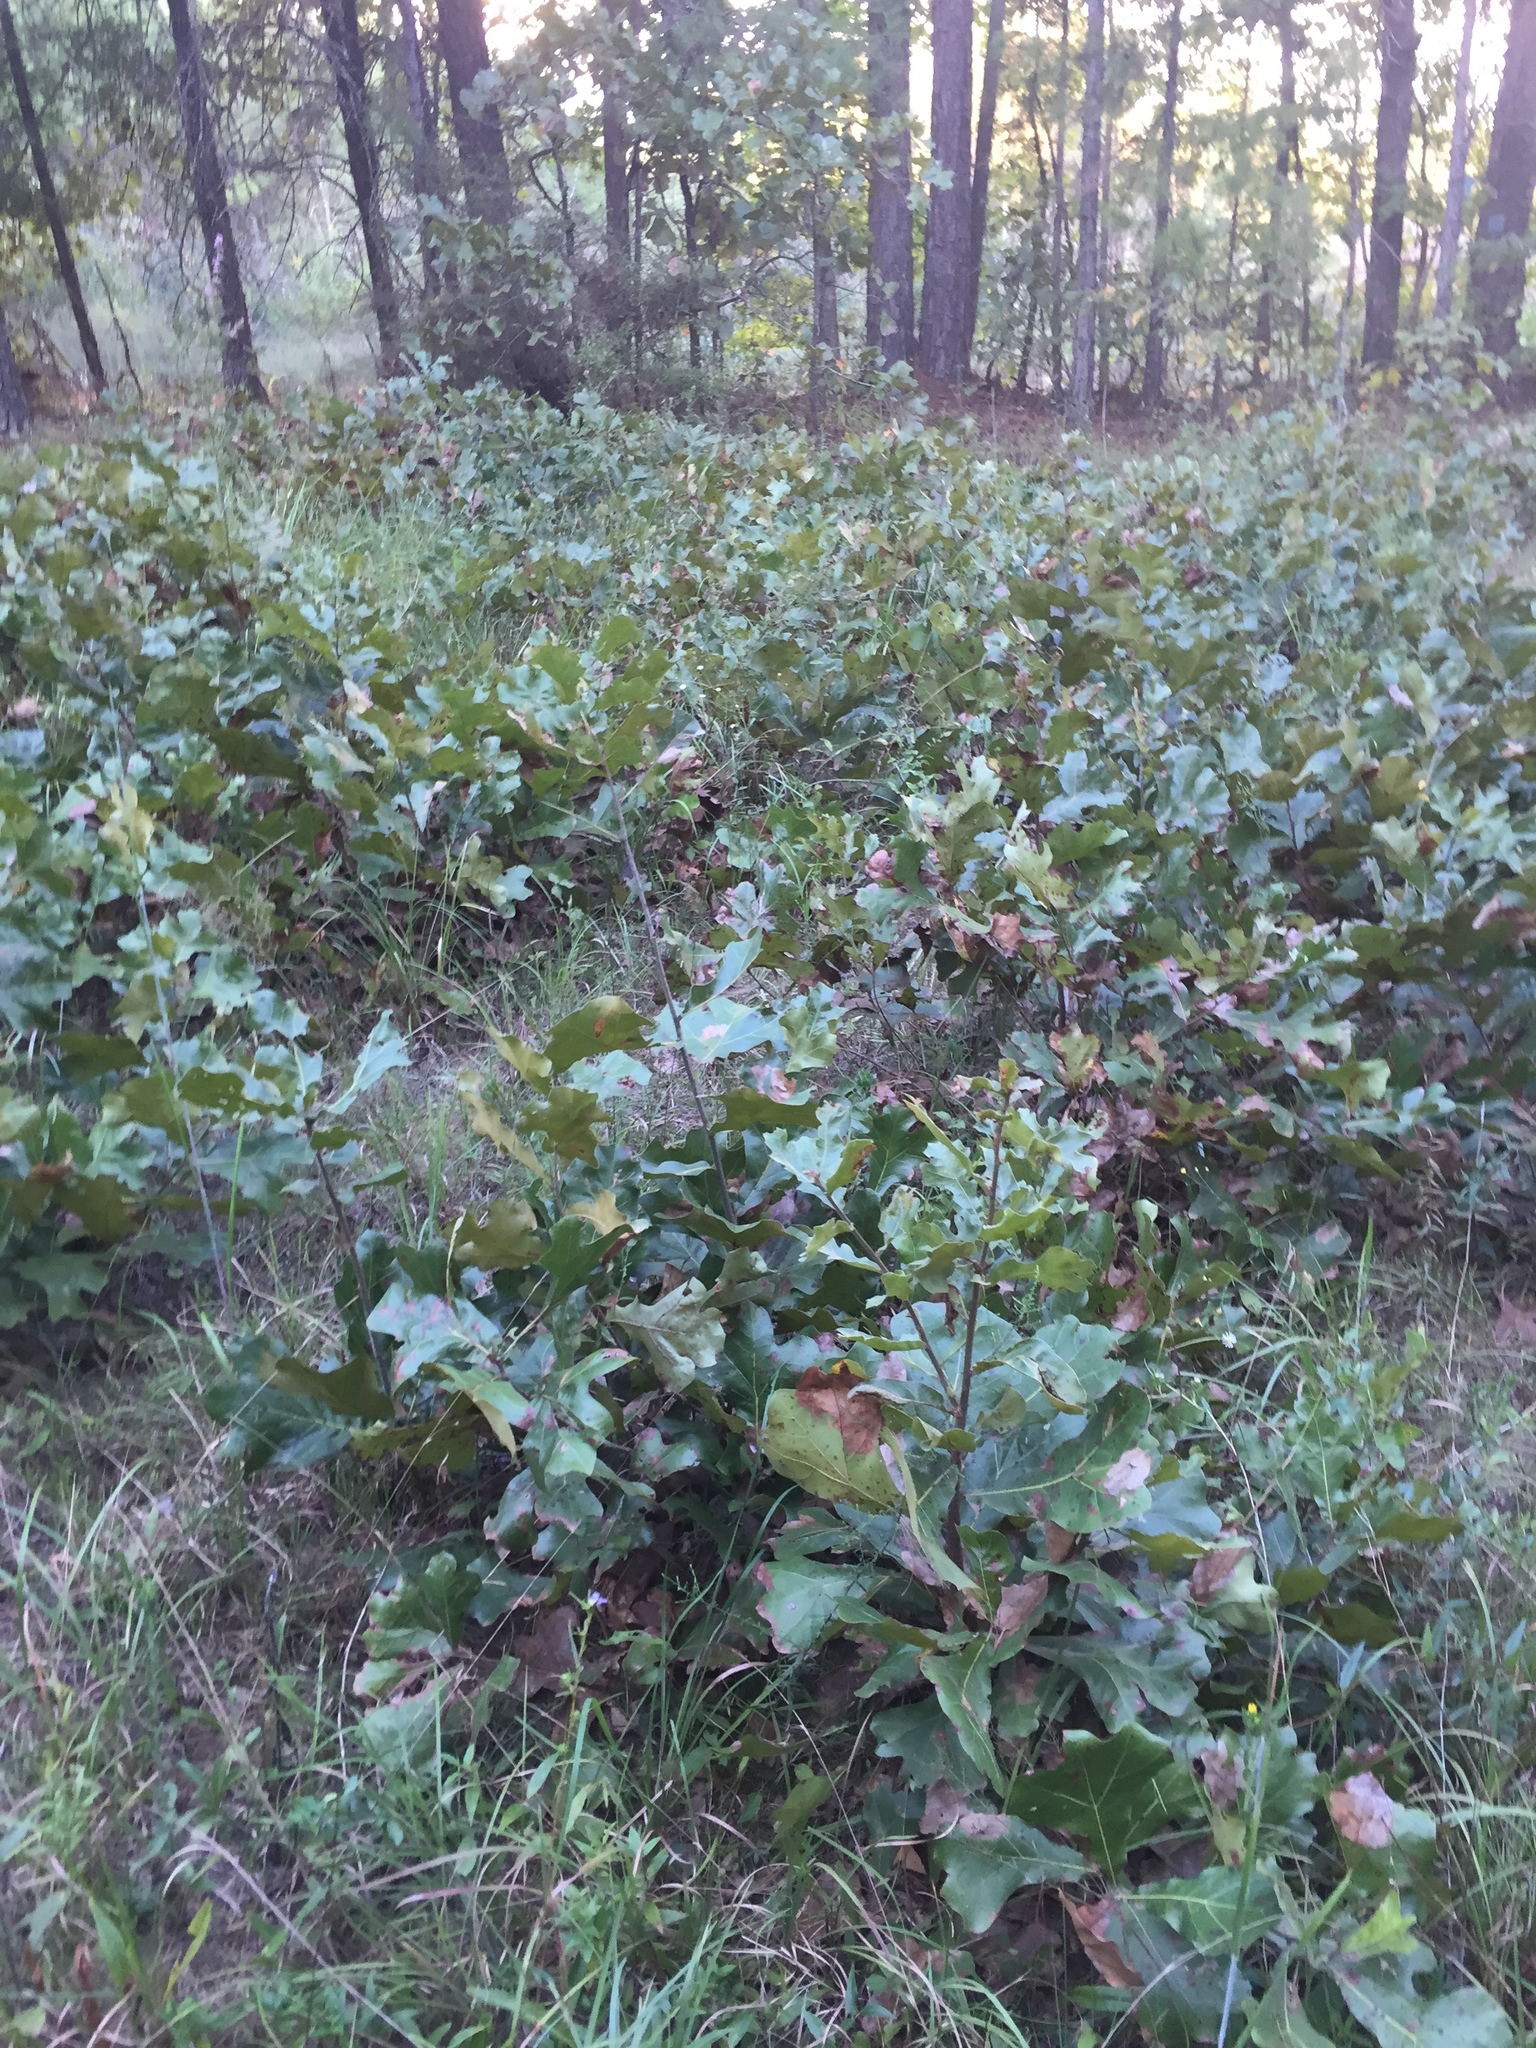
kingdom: Plantae
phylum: Tracheophyta
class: Magnoliopsida
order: Fagales
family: Fagaceae
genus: Quercus
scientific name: Quercus marilandica
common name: Blackjack oak
